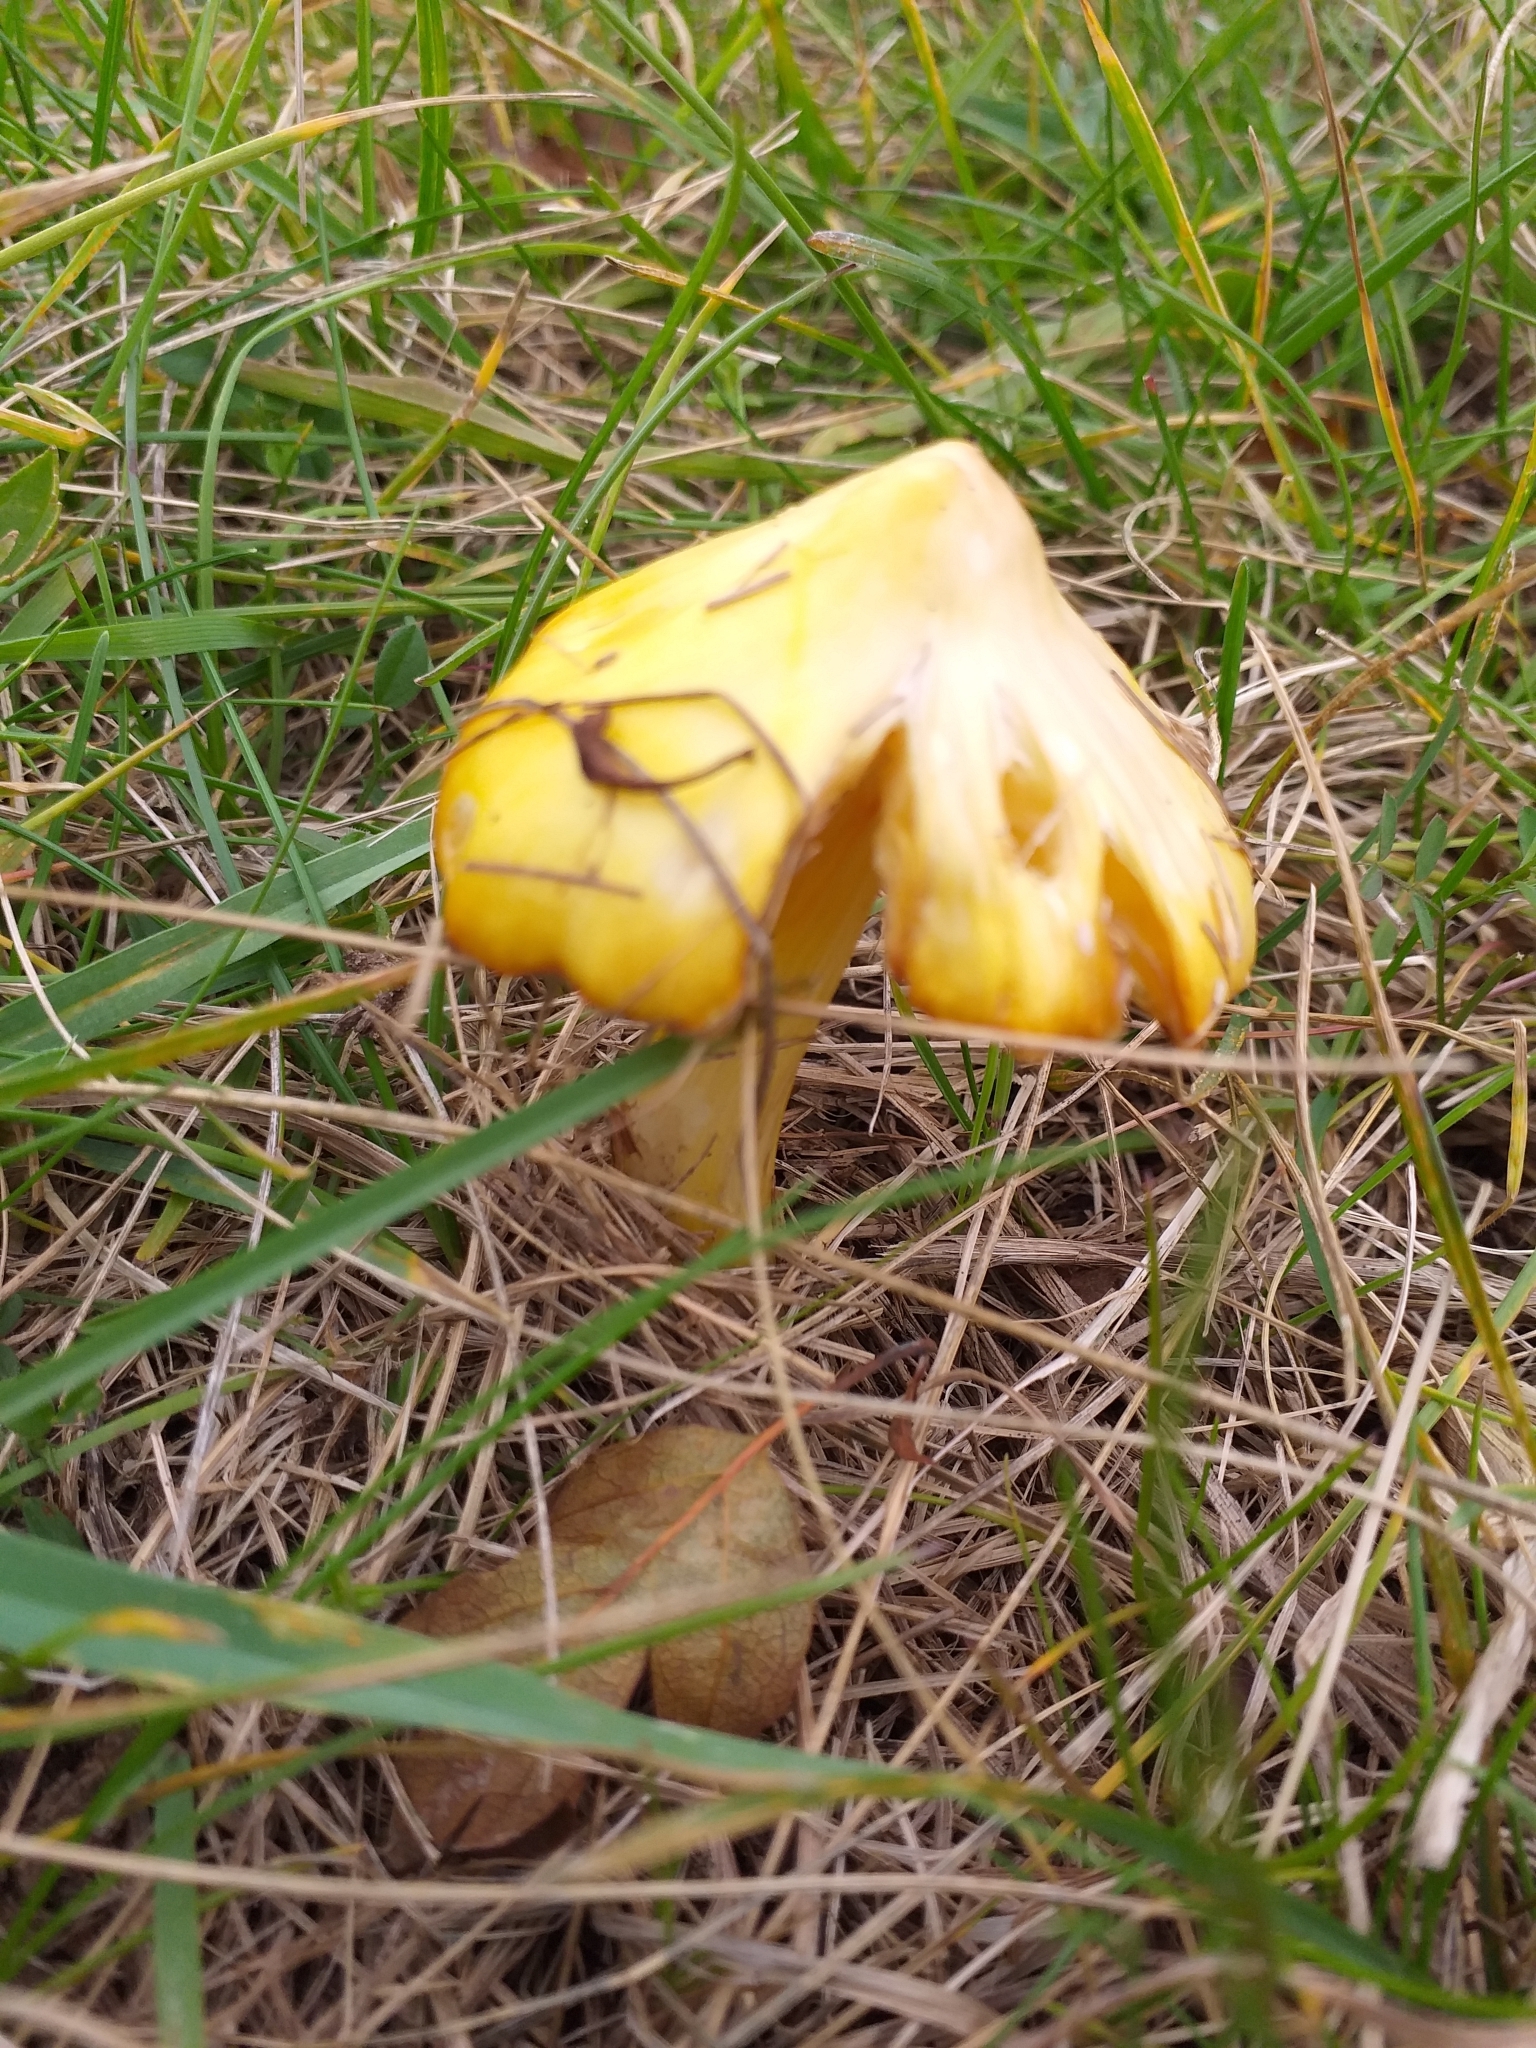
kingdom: Fungi
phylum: Basidiomycota
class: Agaricomycetes
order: Agaricales
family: Hygrophoraceae
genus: Hygrocybe
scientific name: Hygrocybe acutoconica
